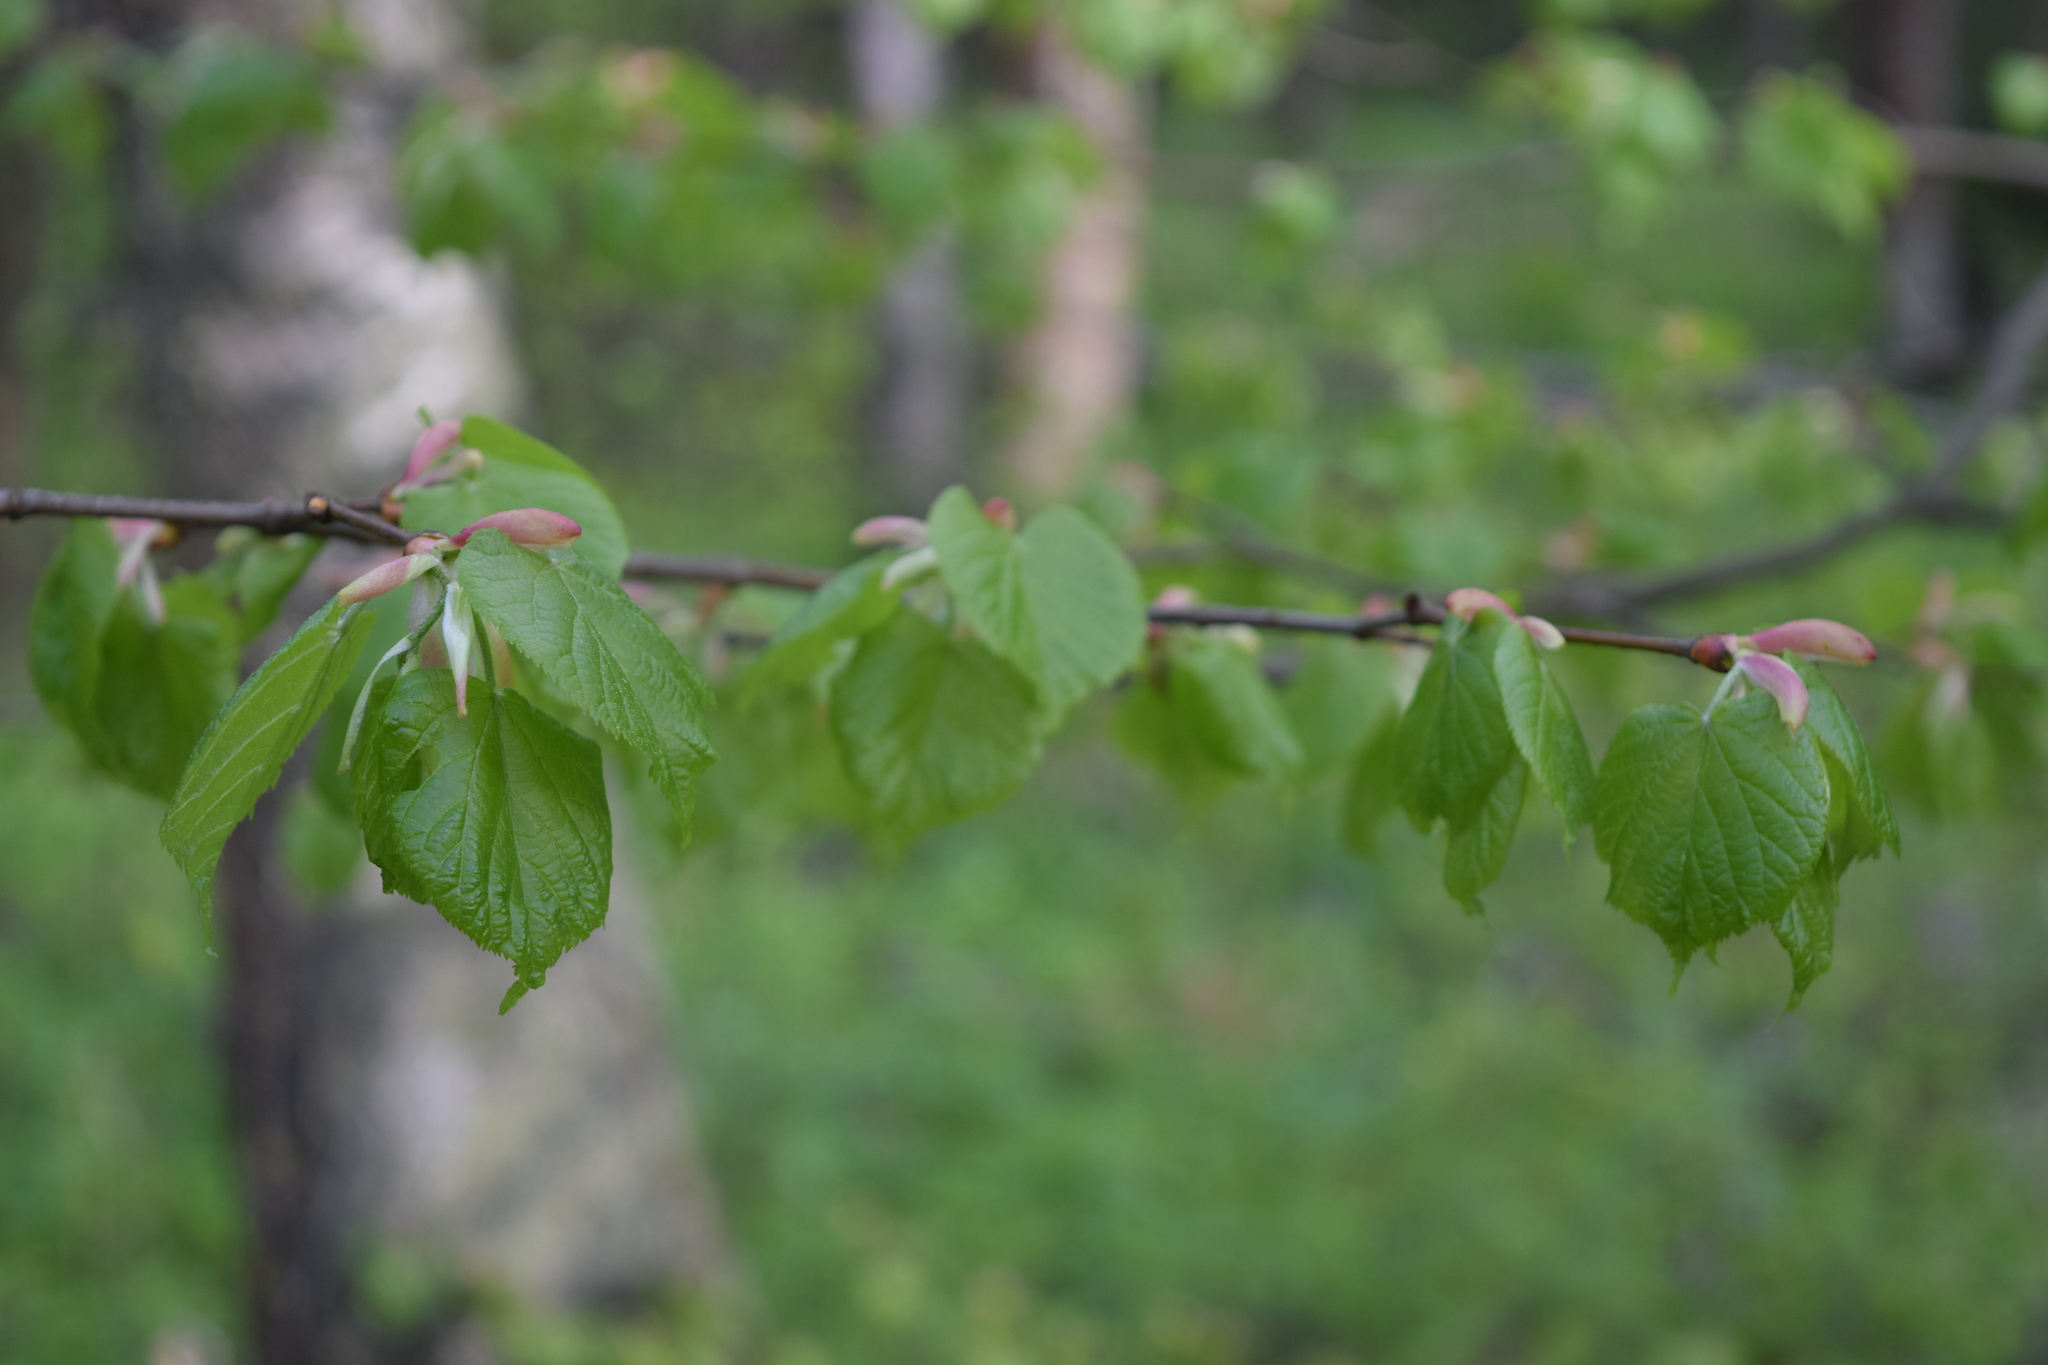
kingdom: Plantae
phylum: Tracheophyta
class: Magnoliopsida
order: Malvales
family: Malvaceae
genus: Tilia
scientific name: Tilia cordata
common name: Small-leaved lime
